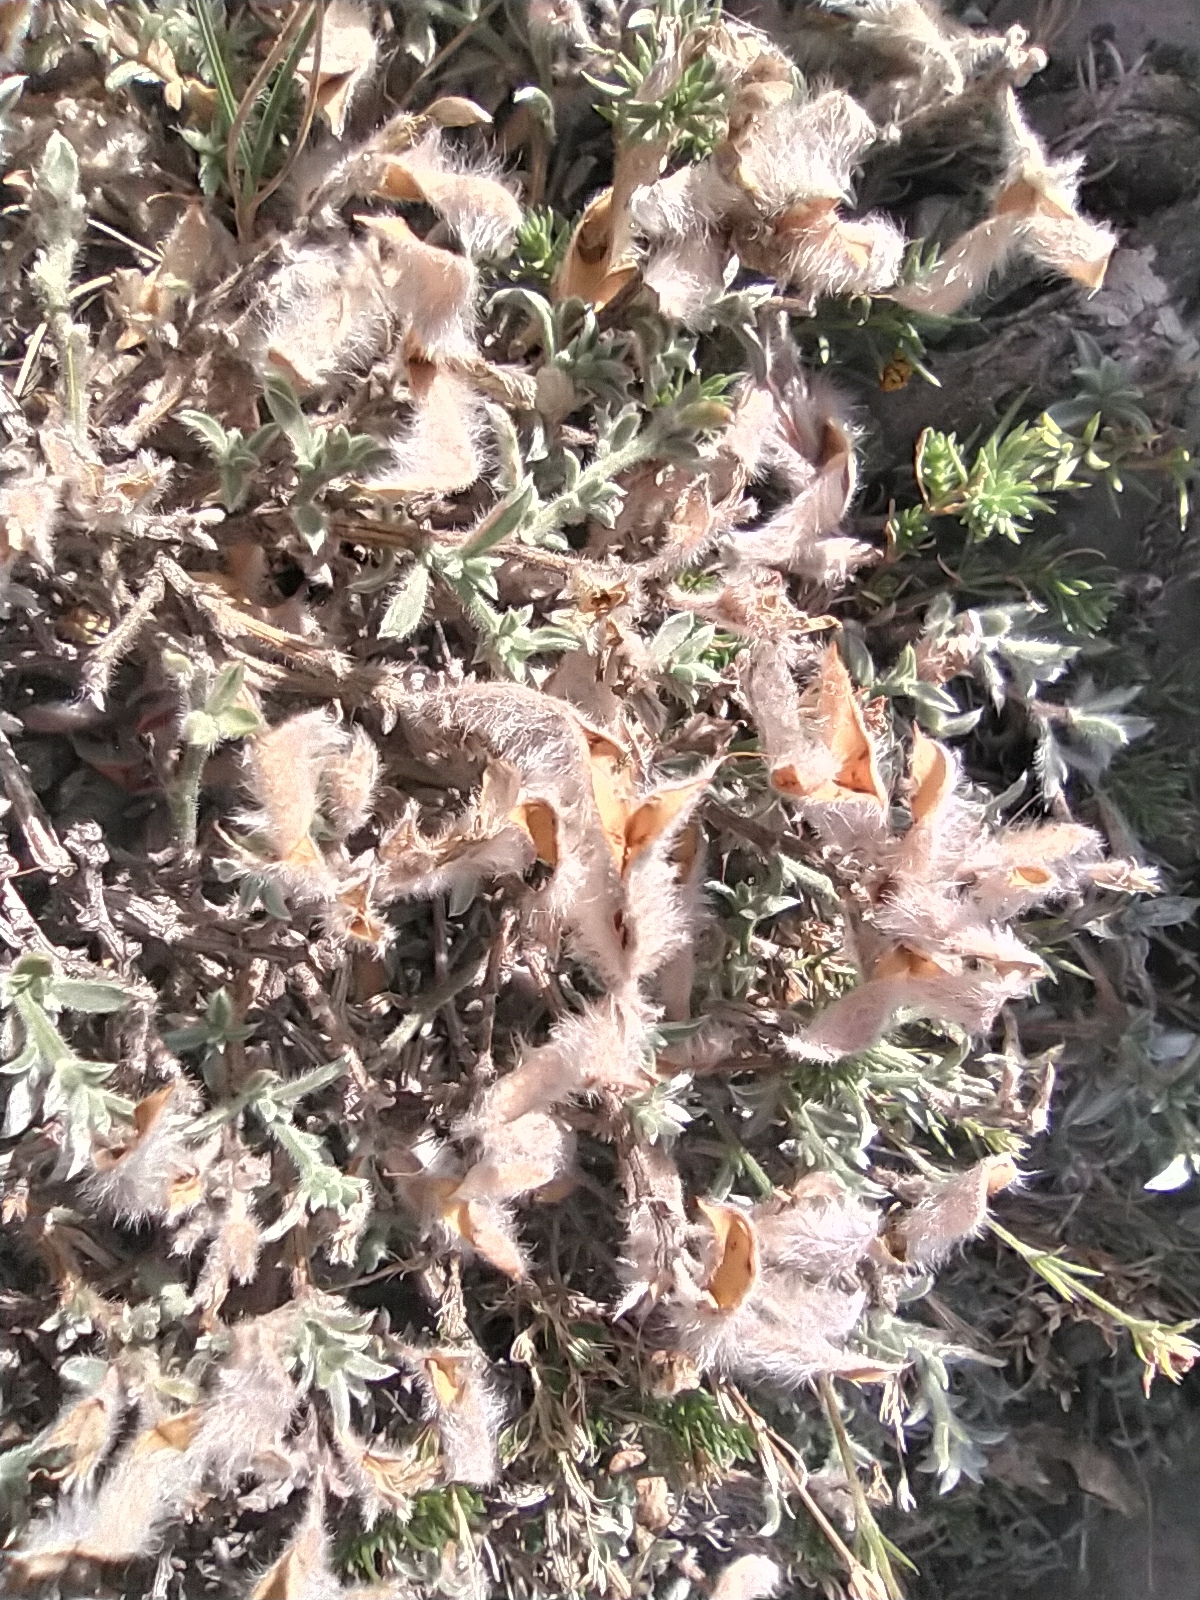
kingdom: Plantae
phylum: Tracheophyta
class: Magnoliopsida
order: Fabales
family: Fabaceae
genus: Genista
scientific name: Genista albida
